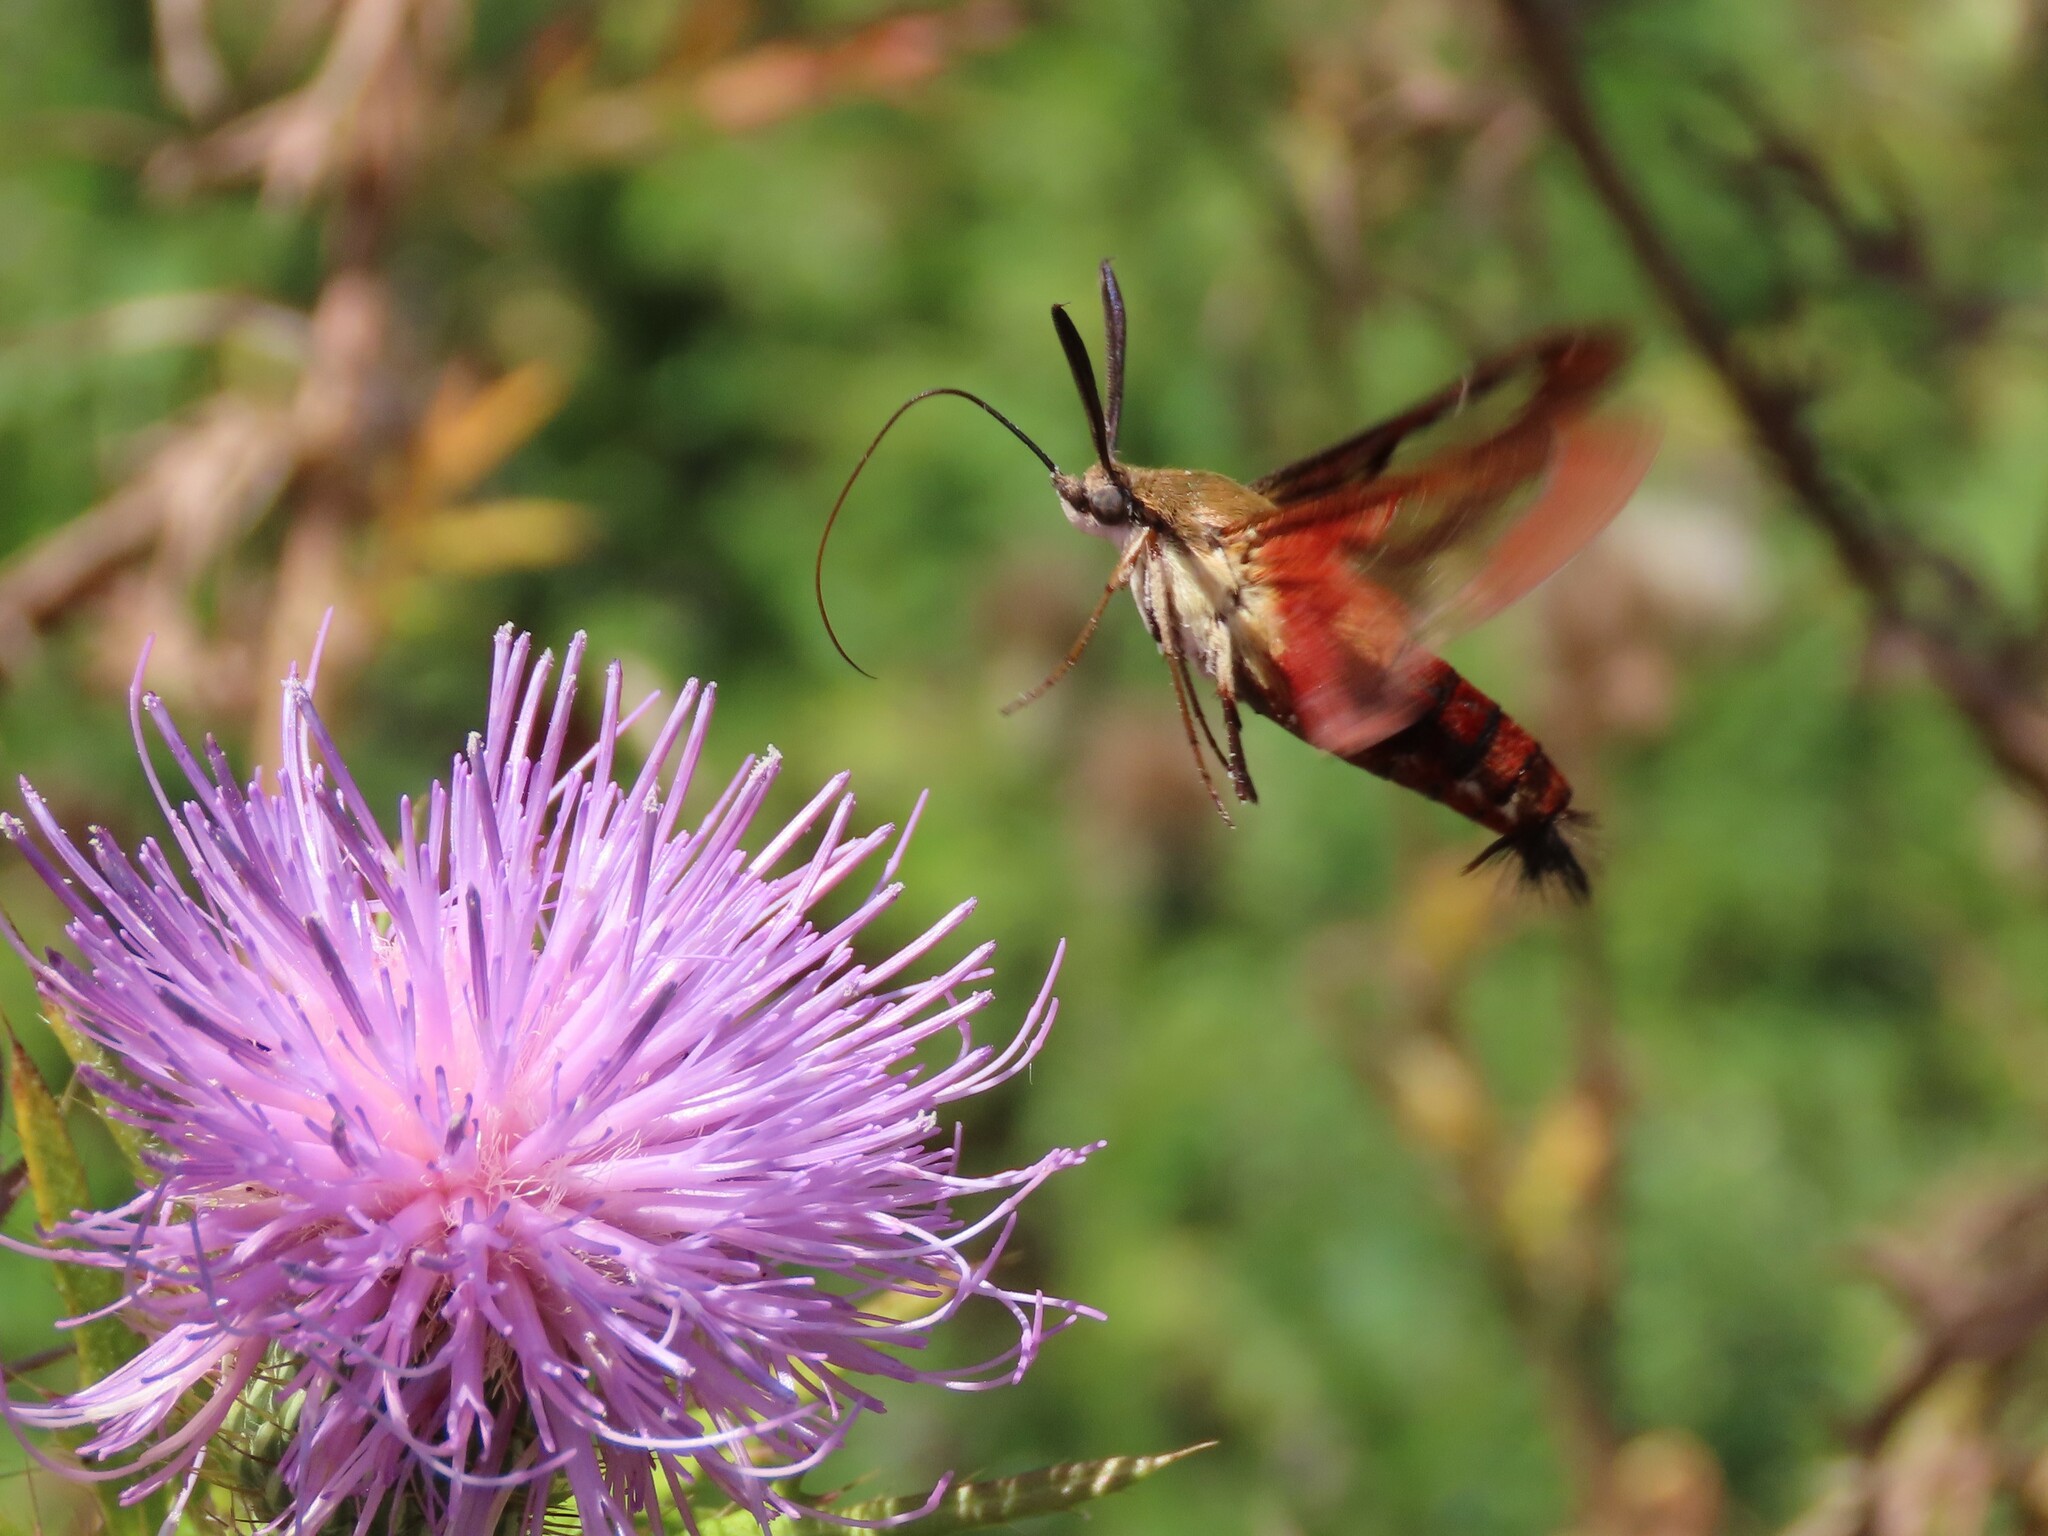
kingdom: Animalia
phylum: Arthropoda
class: Insecta
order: Lepidoptera
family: Sphingidae
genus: Hemaris
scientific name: Hemaris thysbe
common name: Common clear-wing
